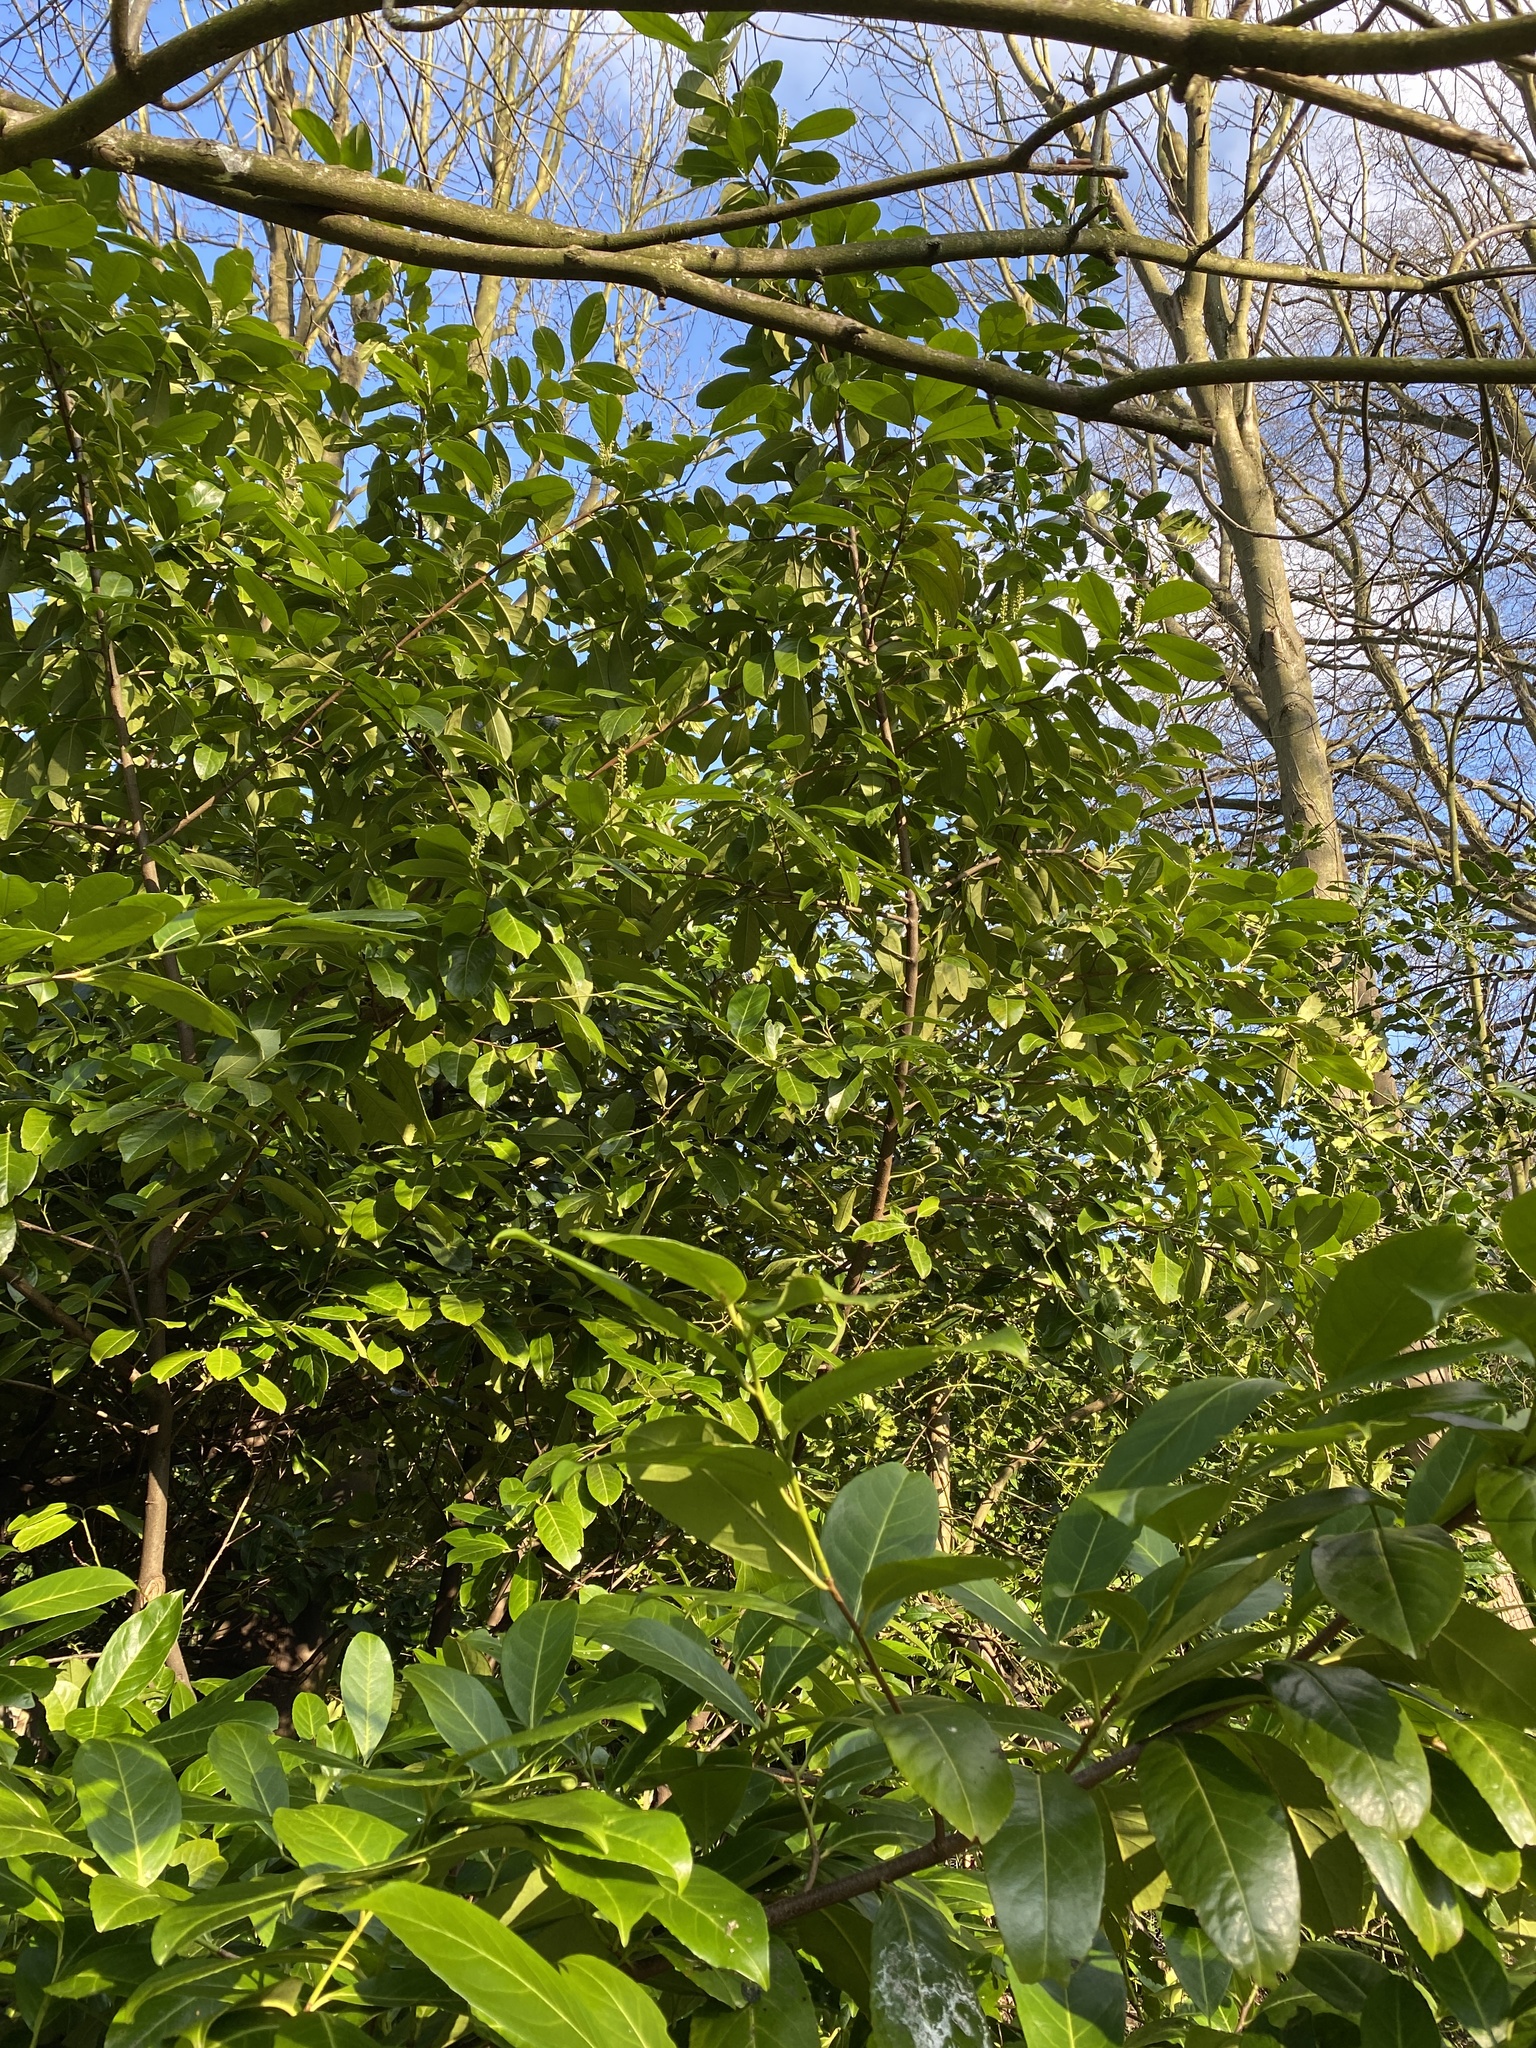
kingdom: Plantae
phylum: Tracheophyta
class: Magnoliopsida
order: Rosales
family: Rosaceae
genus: Prunus
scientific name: Prunus laurocerasus
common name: Cherry laurel
